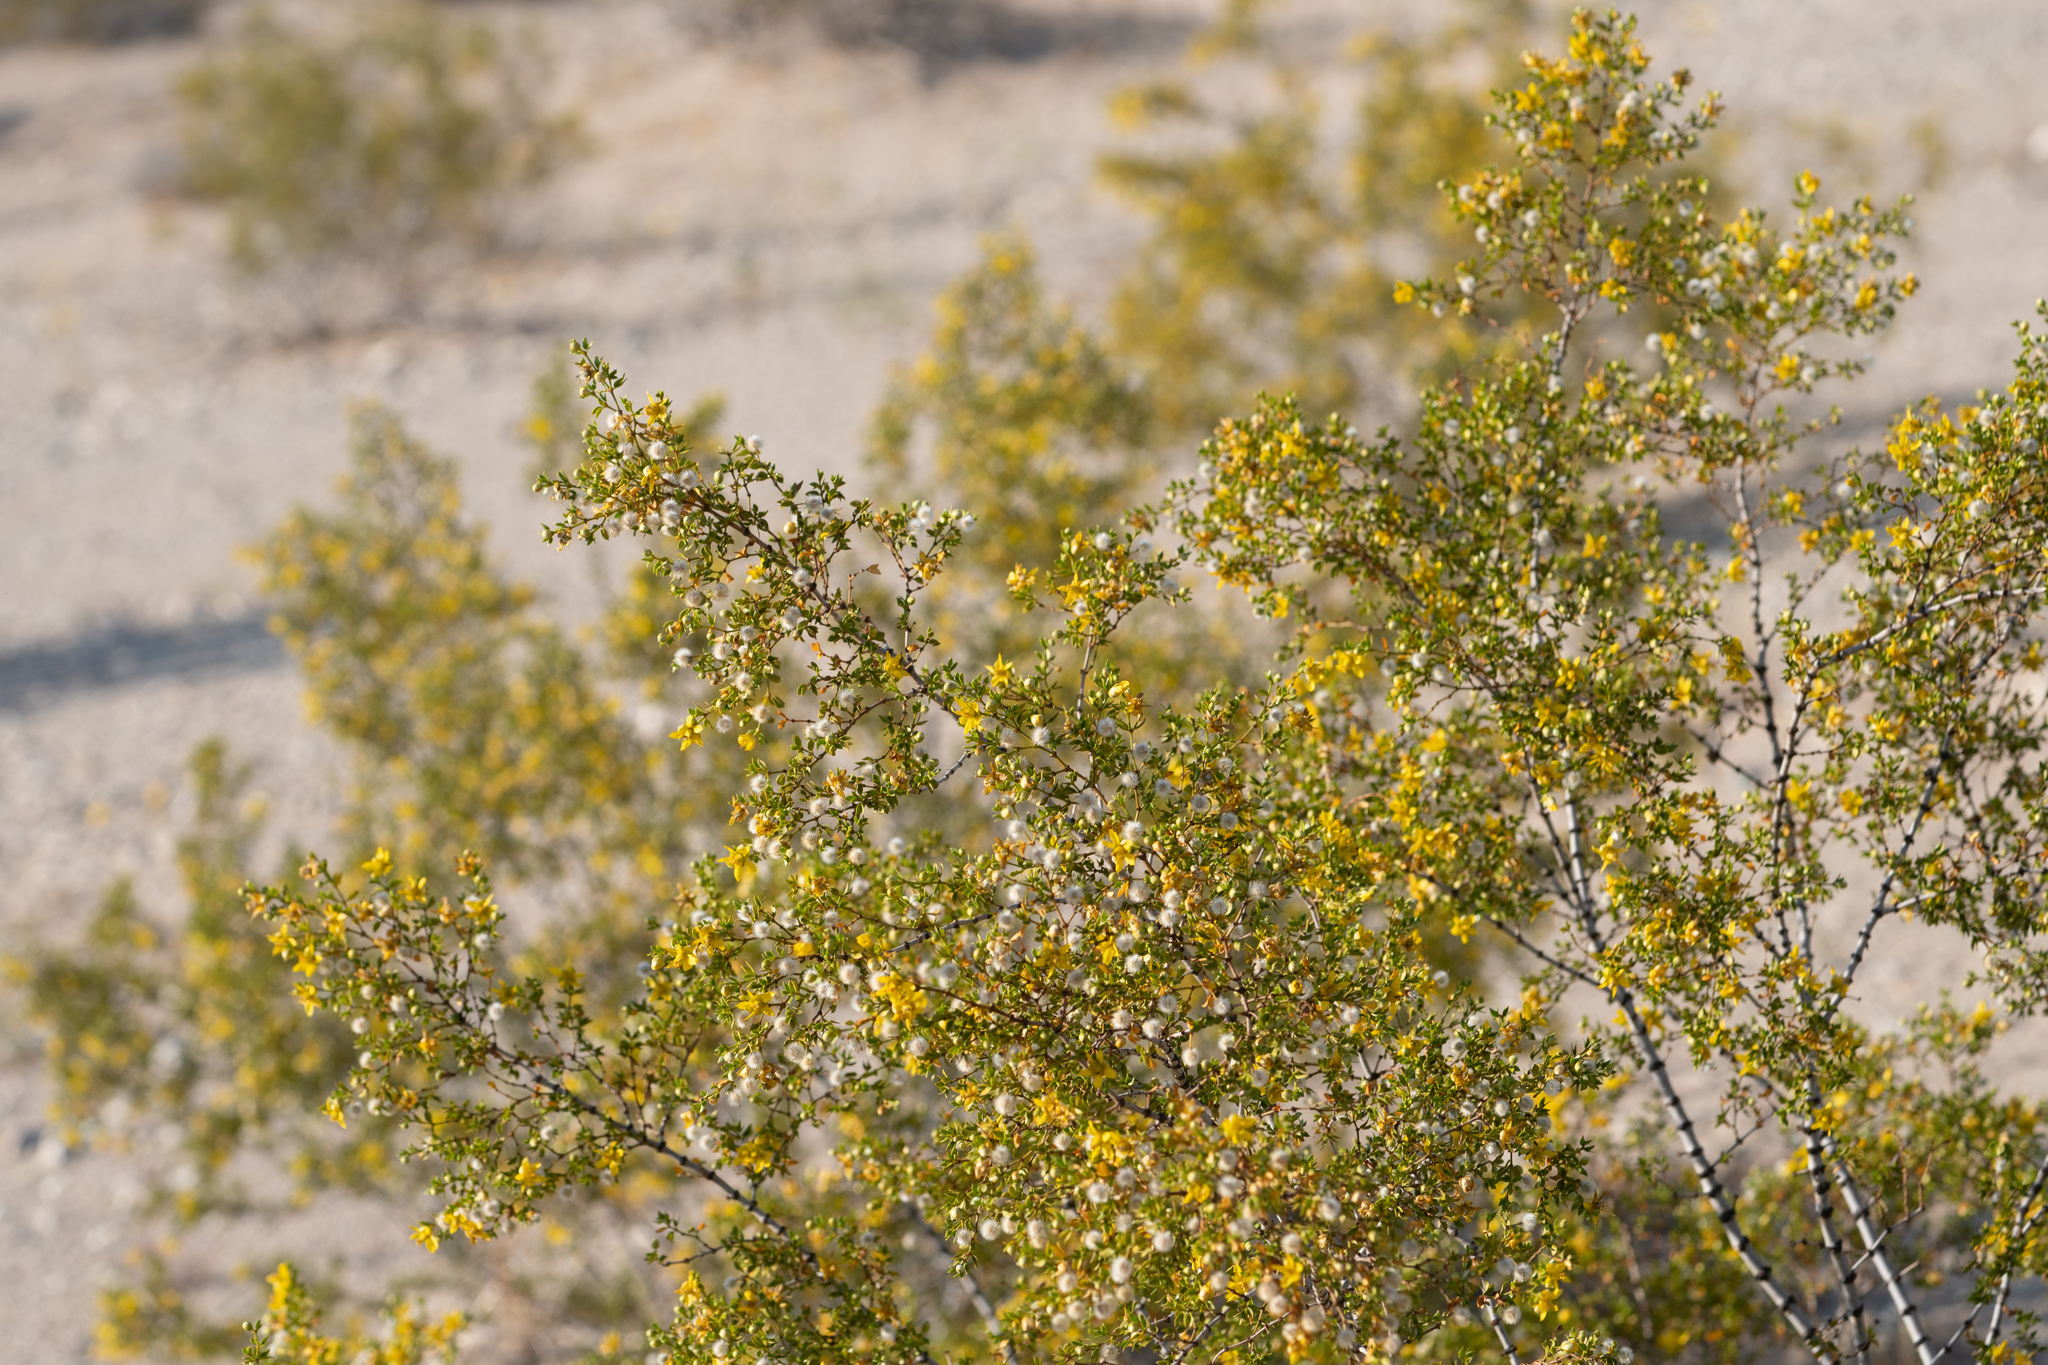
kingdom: Plantae
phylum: Tracheophyta
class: Magnoliopsida
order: Zygophyllales
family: Zygophyllaceae
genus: Larrea
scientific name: Larrea tridentata
